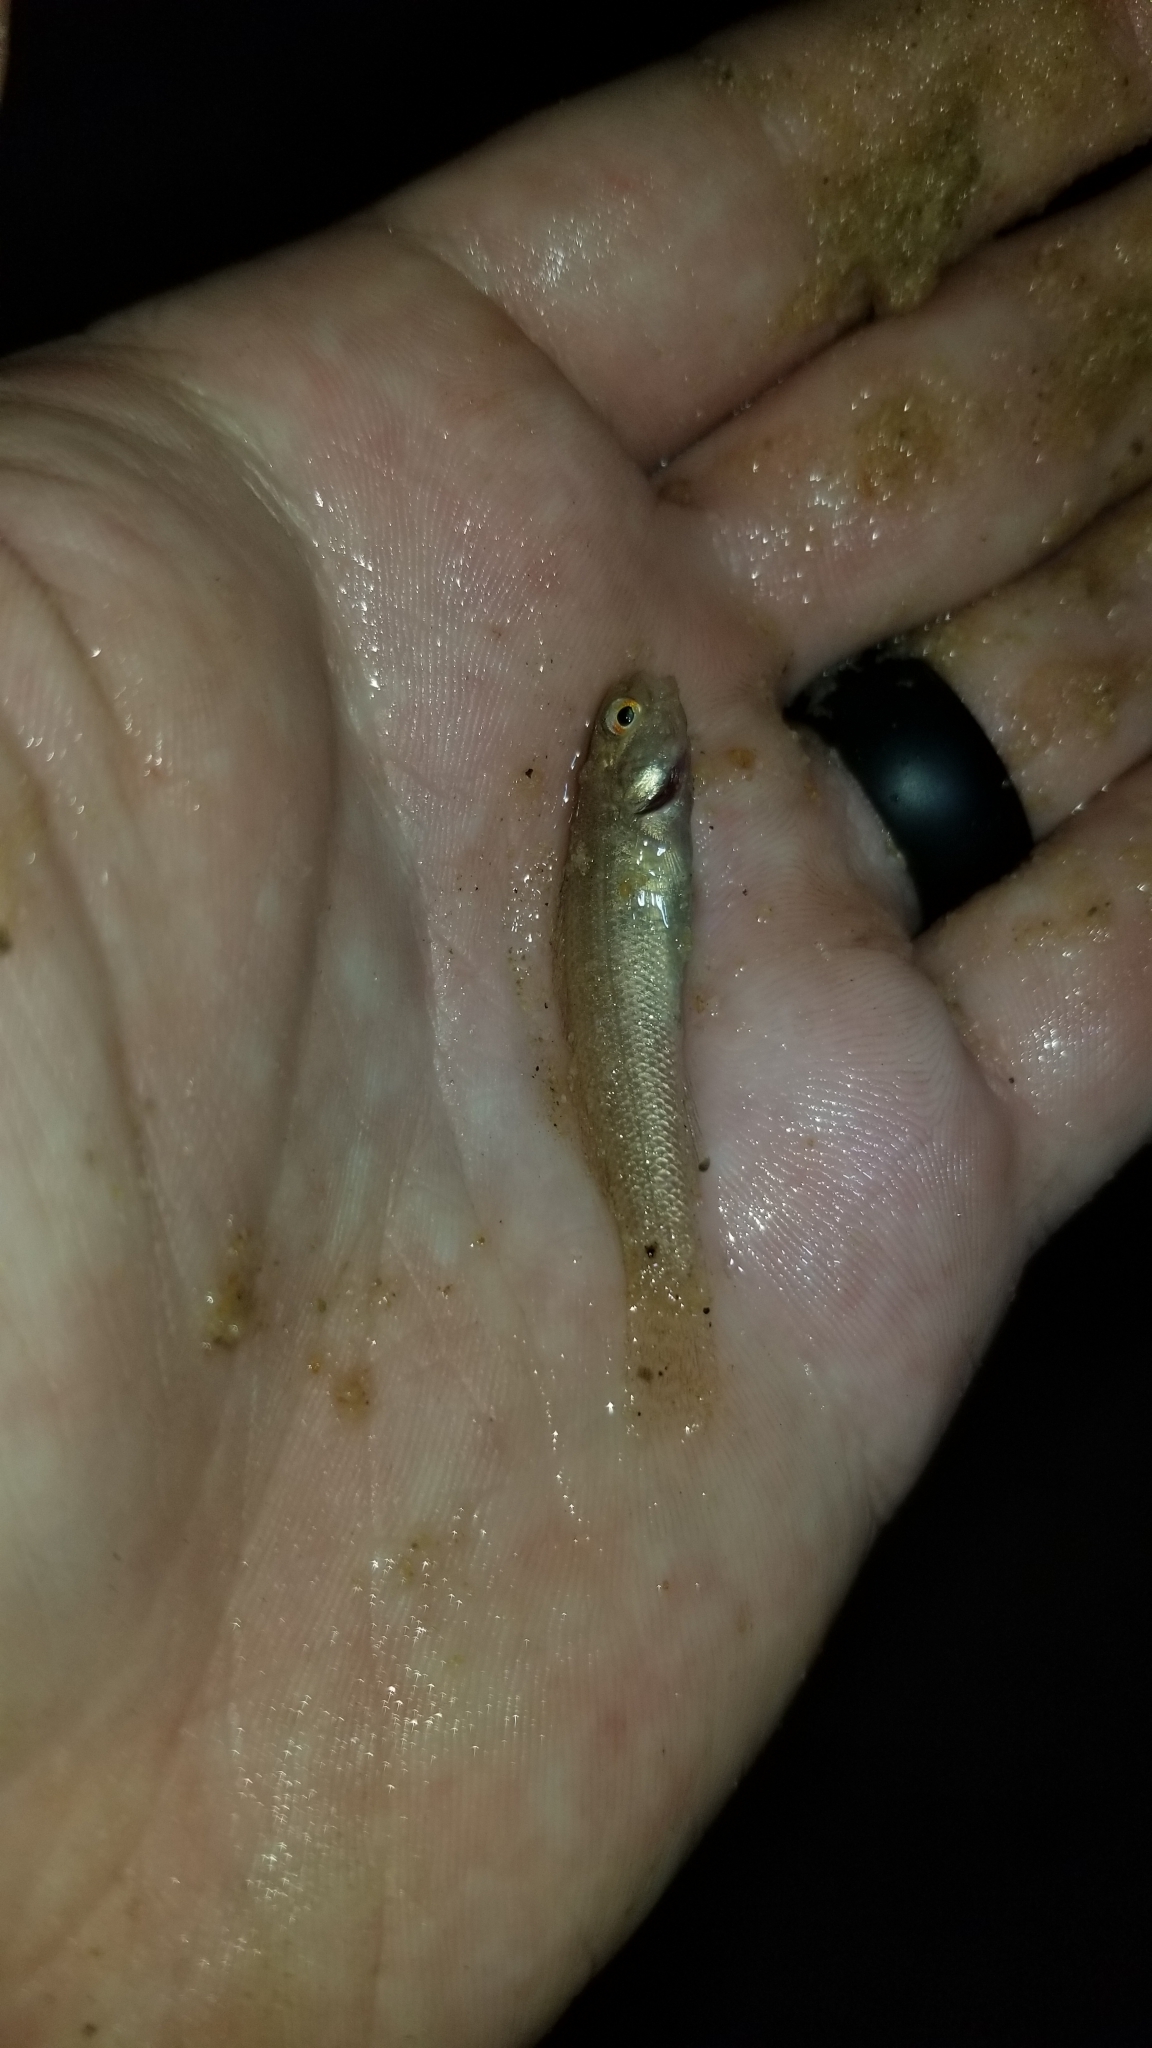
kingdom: Animalia
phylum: Chordata
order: Perciformes
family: Percidae
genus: Etheostoma
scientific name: Etheostoma parvipinne
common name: Goldstripe darter
